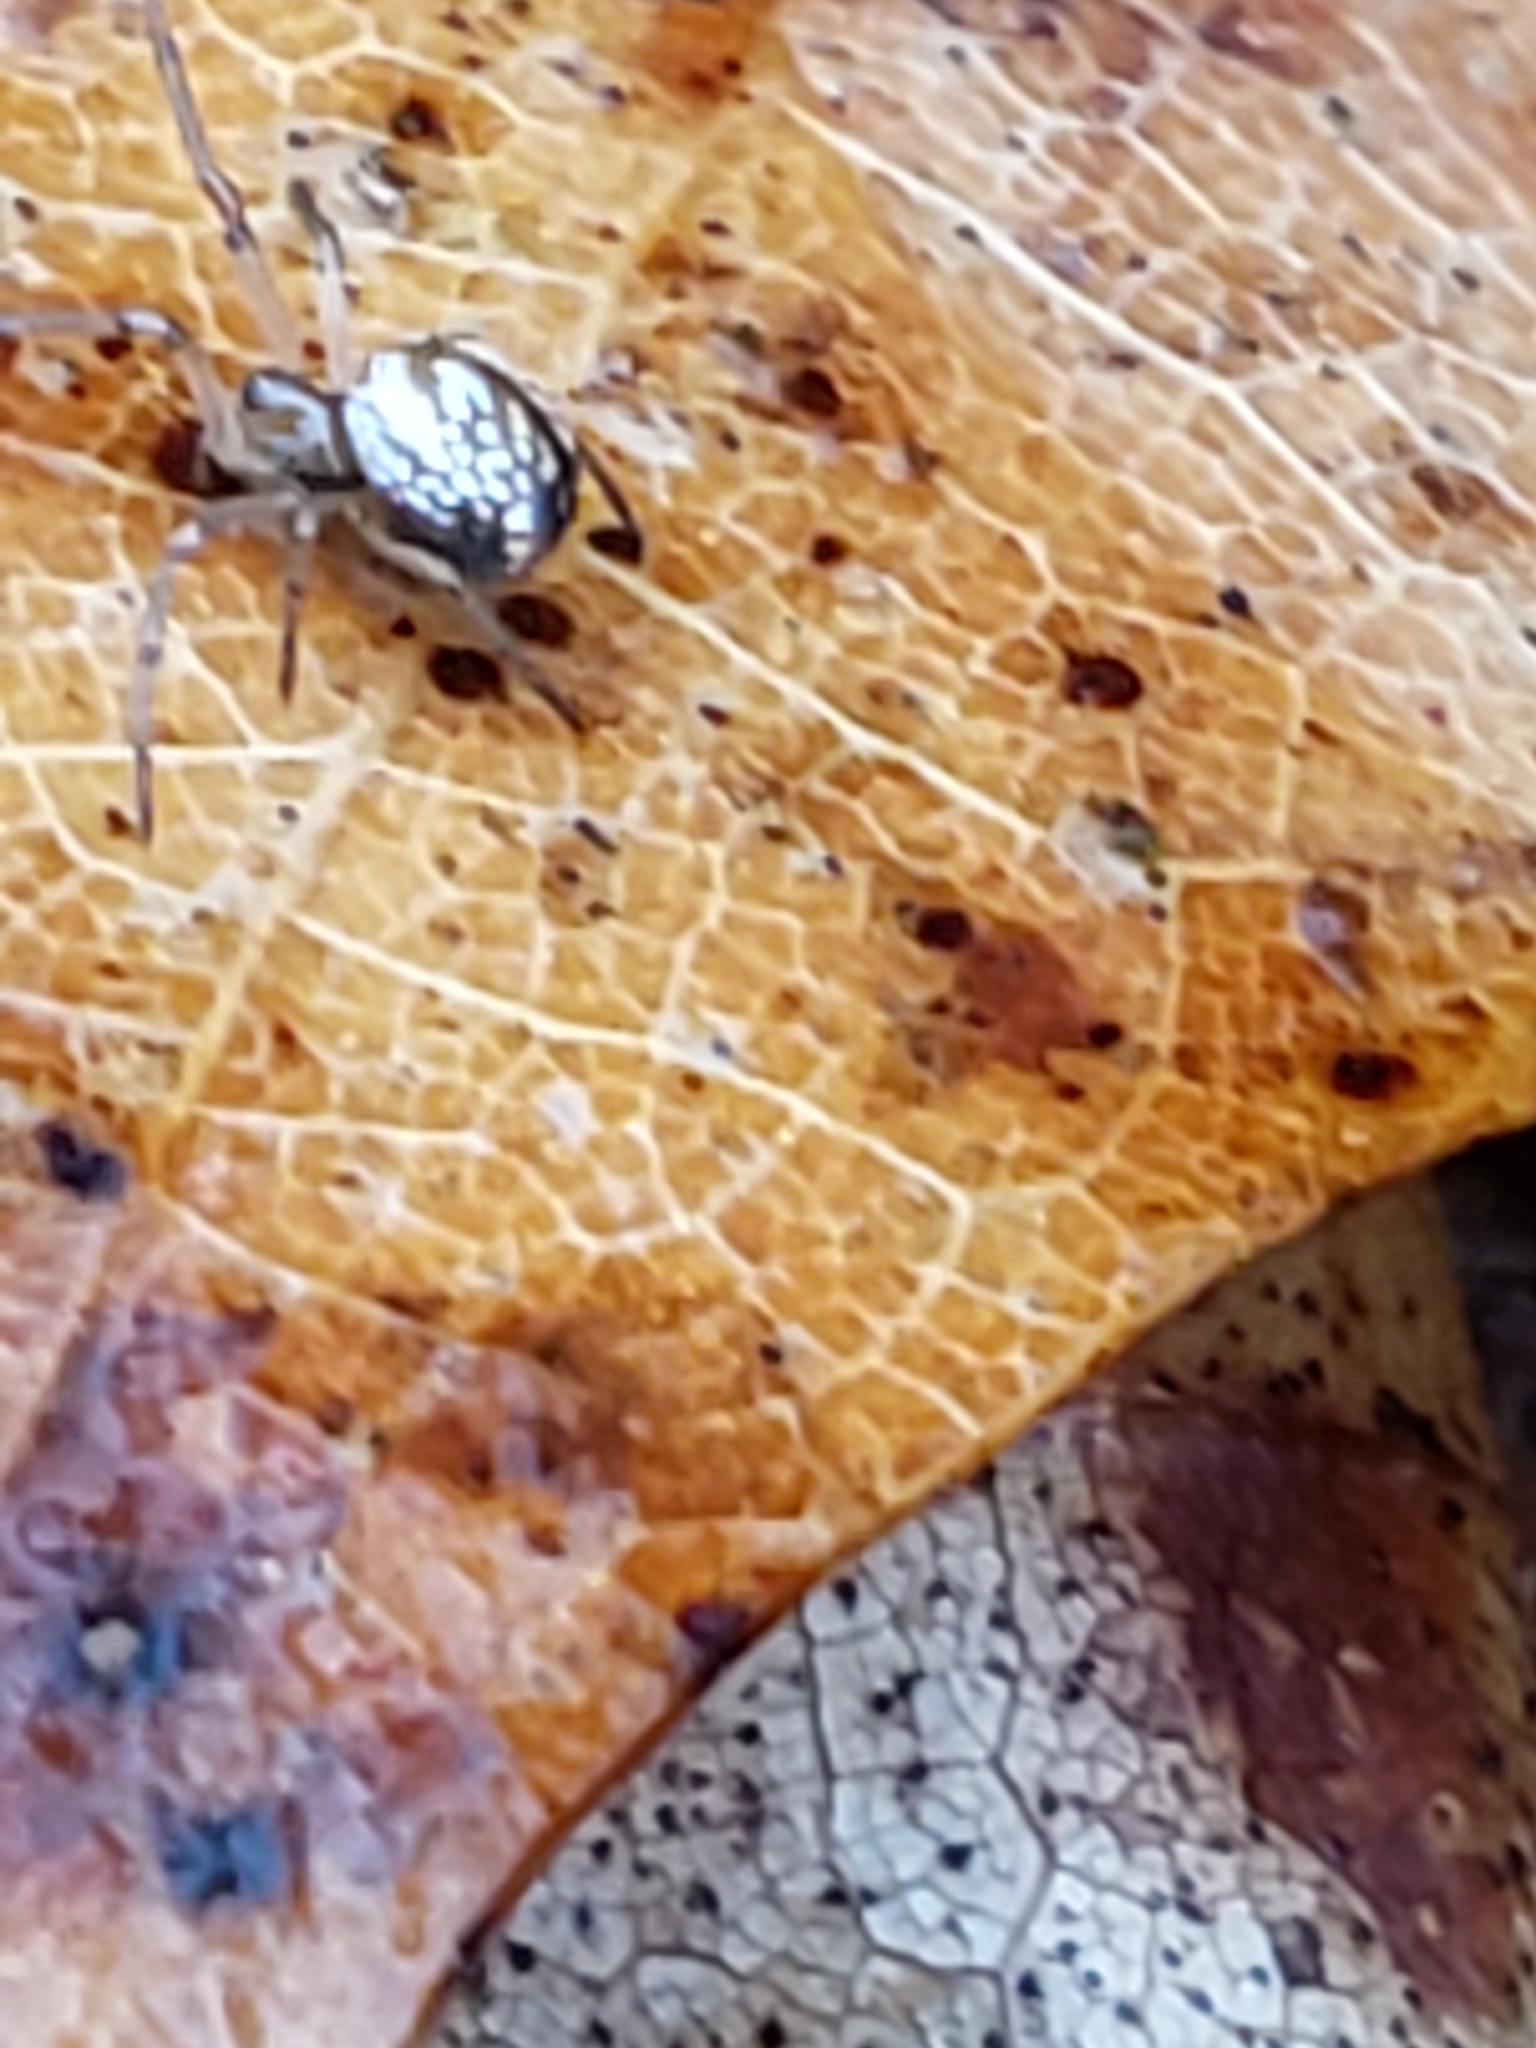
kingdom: Animalia
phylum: Arthropoda
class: Arachnida
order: Araneae
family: Tetragnathidae
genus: Leucauge
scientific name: Leucauge venusta
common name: Longjawed orb weavers
